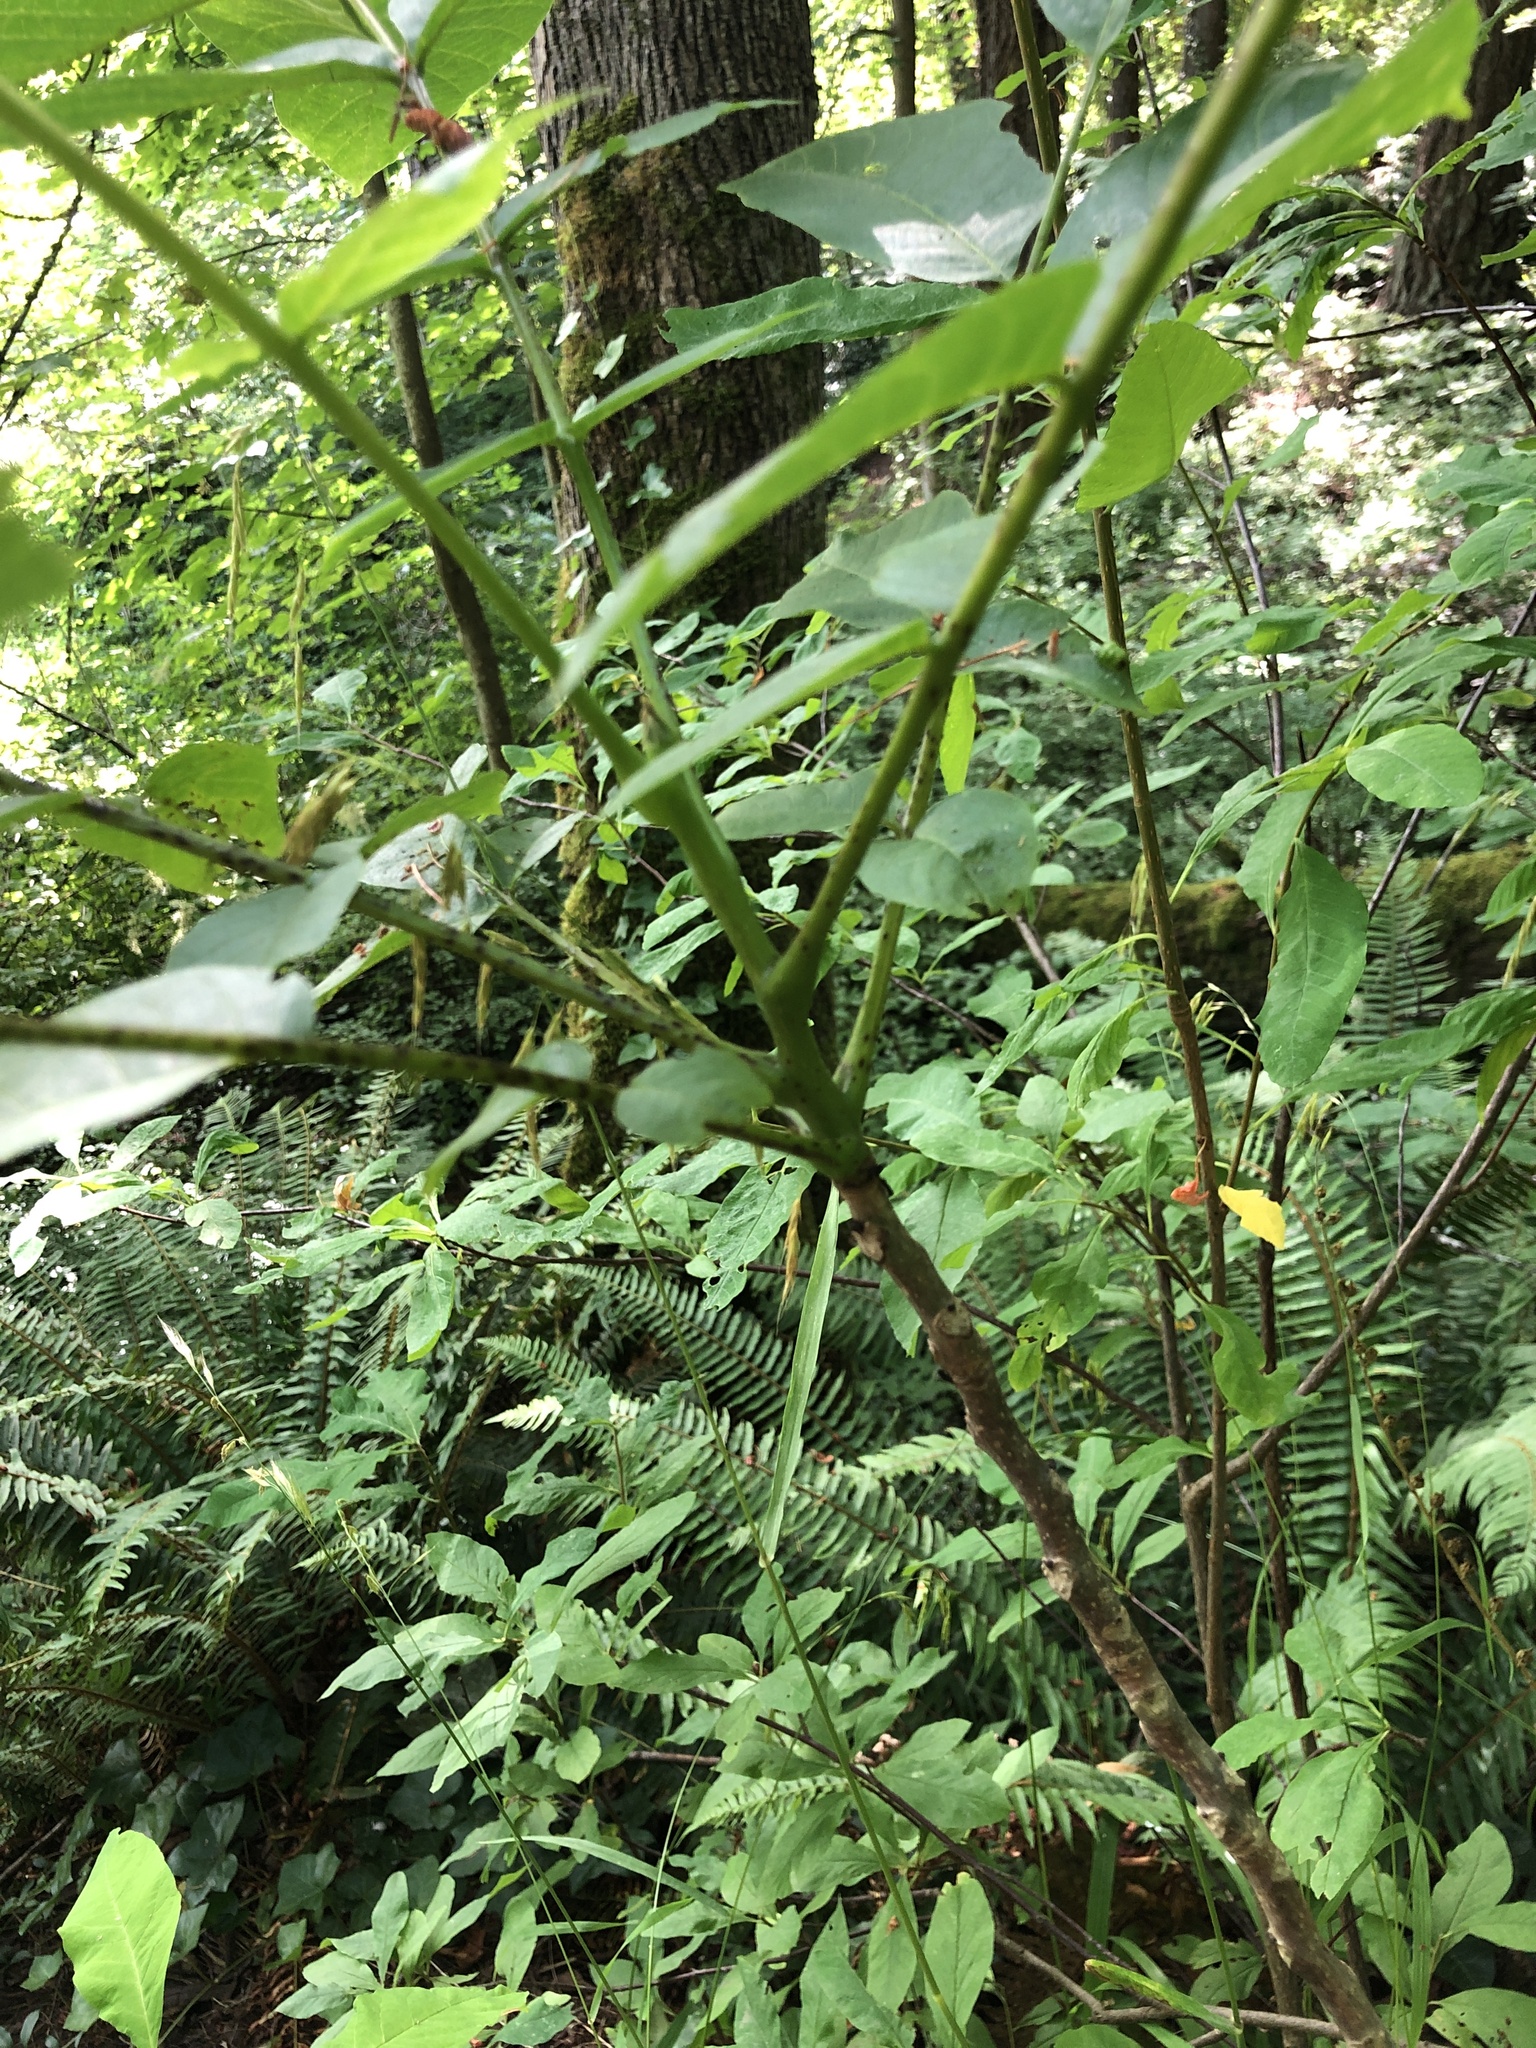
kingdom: Plantae
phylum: Tracheophyta
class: Magnoliopsida
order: Fagales
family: Juglandaceae
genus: Juglans
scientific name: Juglans regia
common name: Walnut
